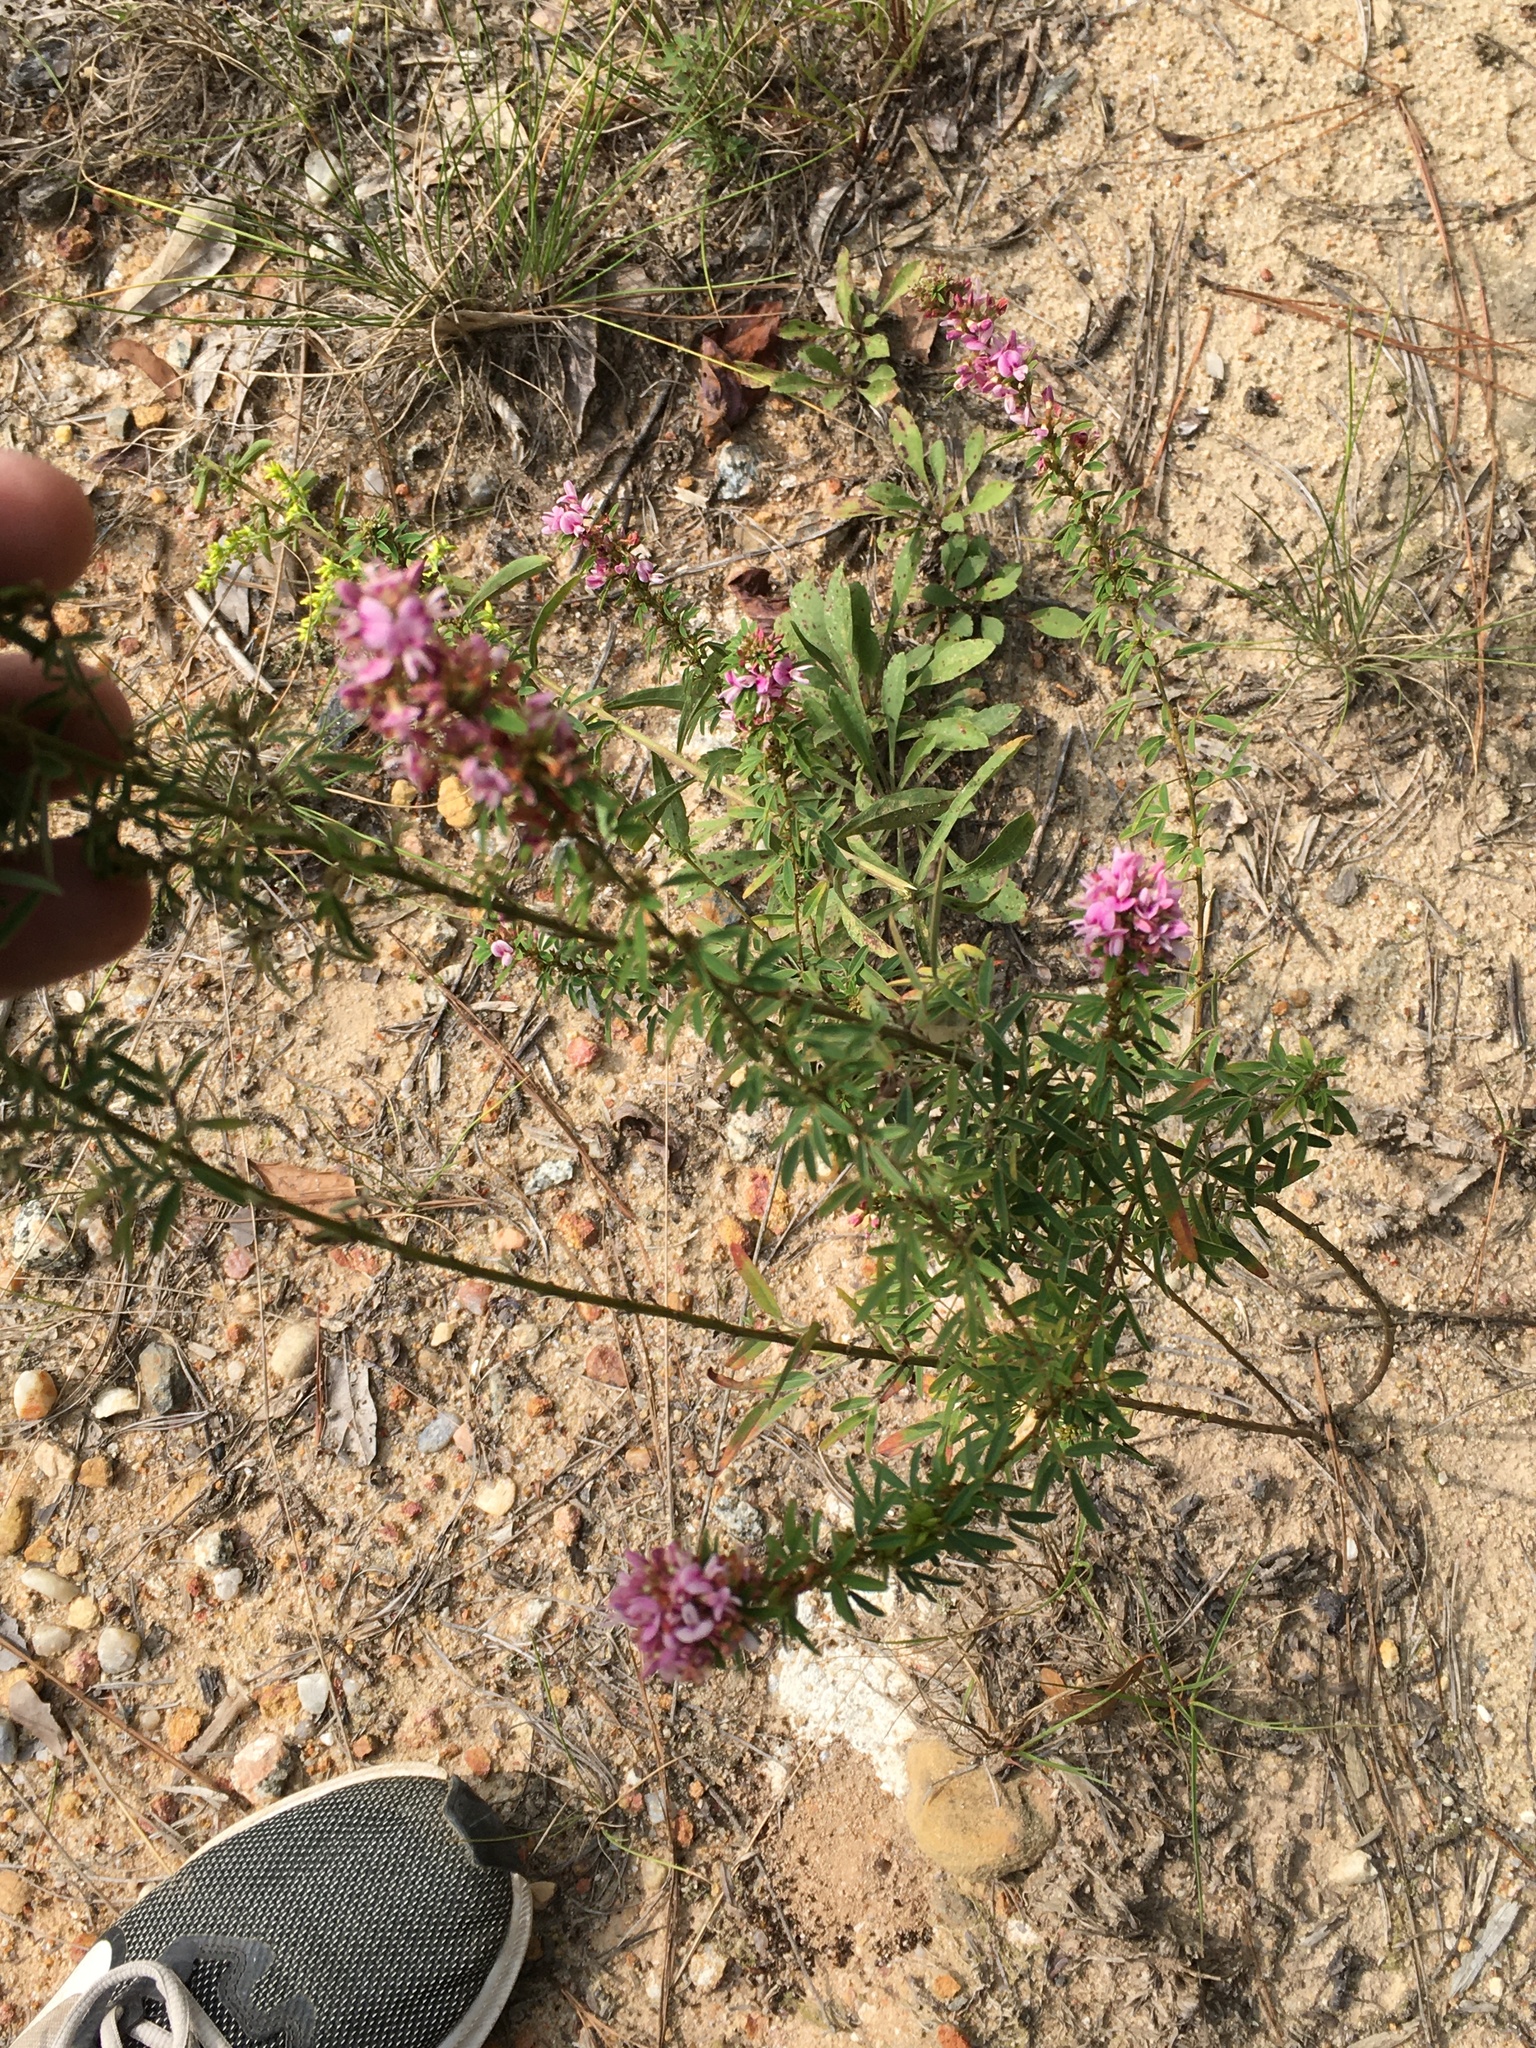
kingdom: Plantae
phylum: Tracheophyta
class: Magnoliopsida
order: Fabales
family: Fabaceae
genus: Lespedeza
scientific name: Lespedeza virginica
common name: Slender bush-clover
